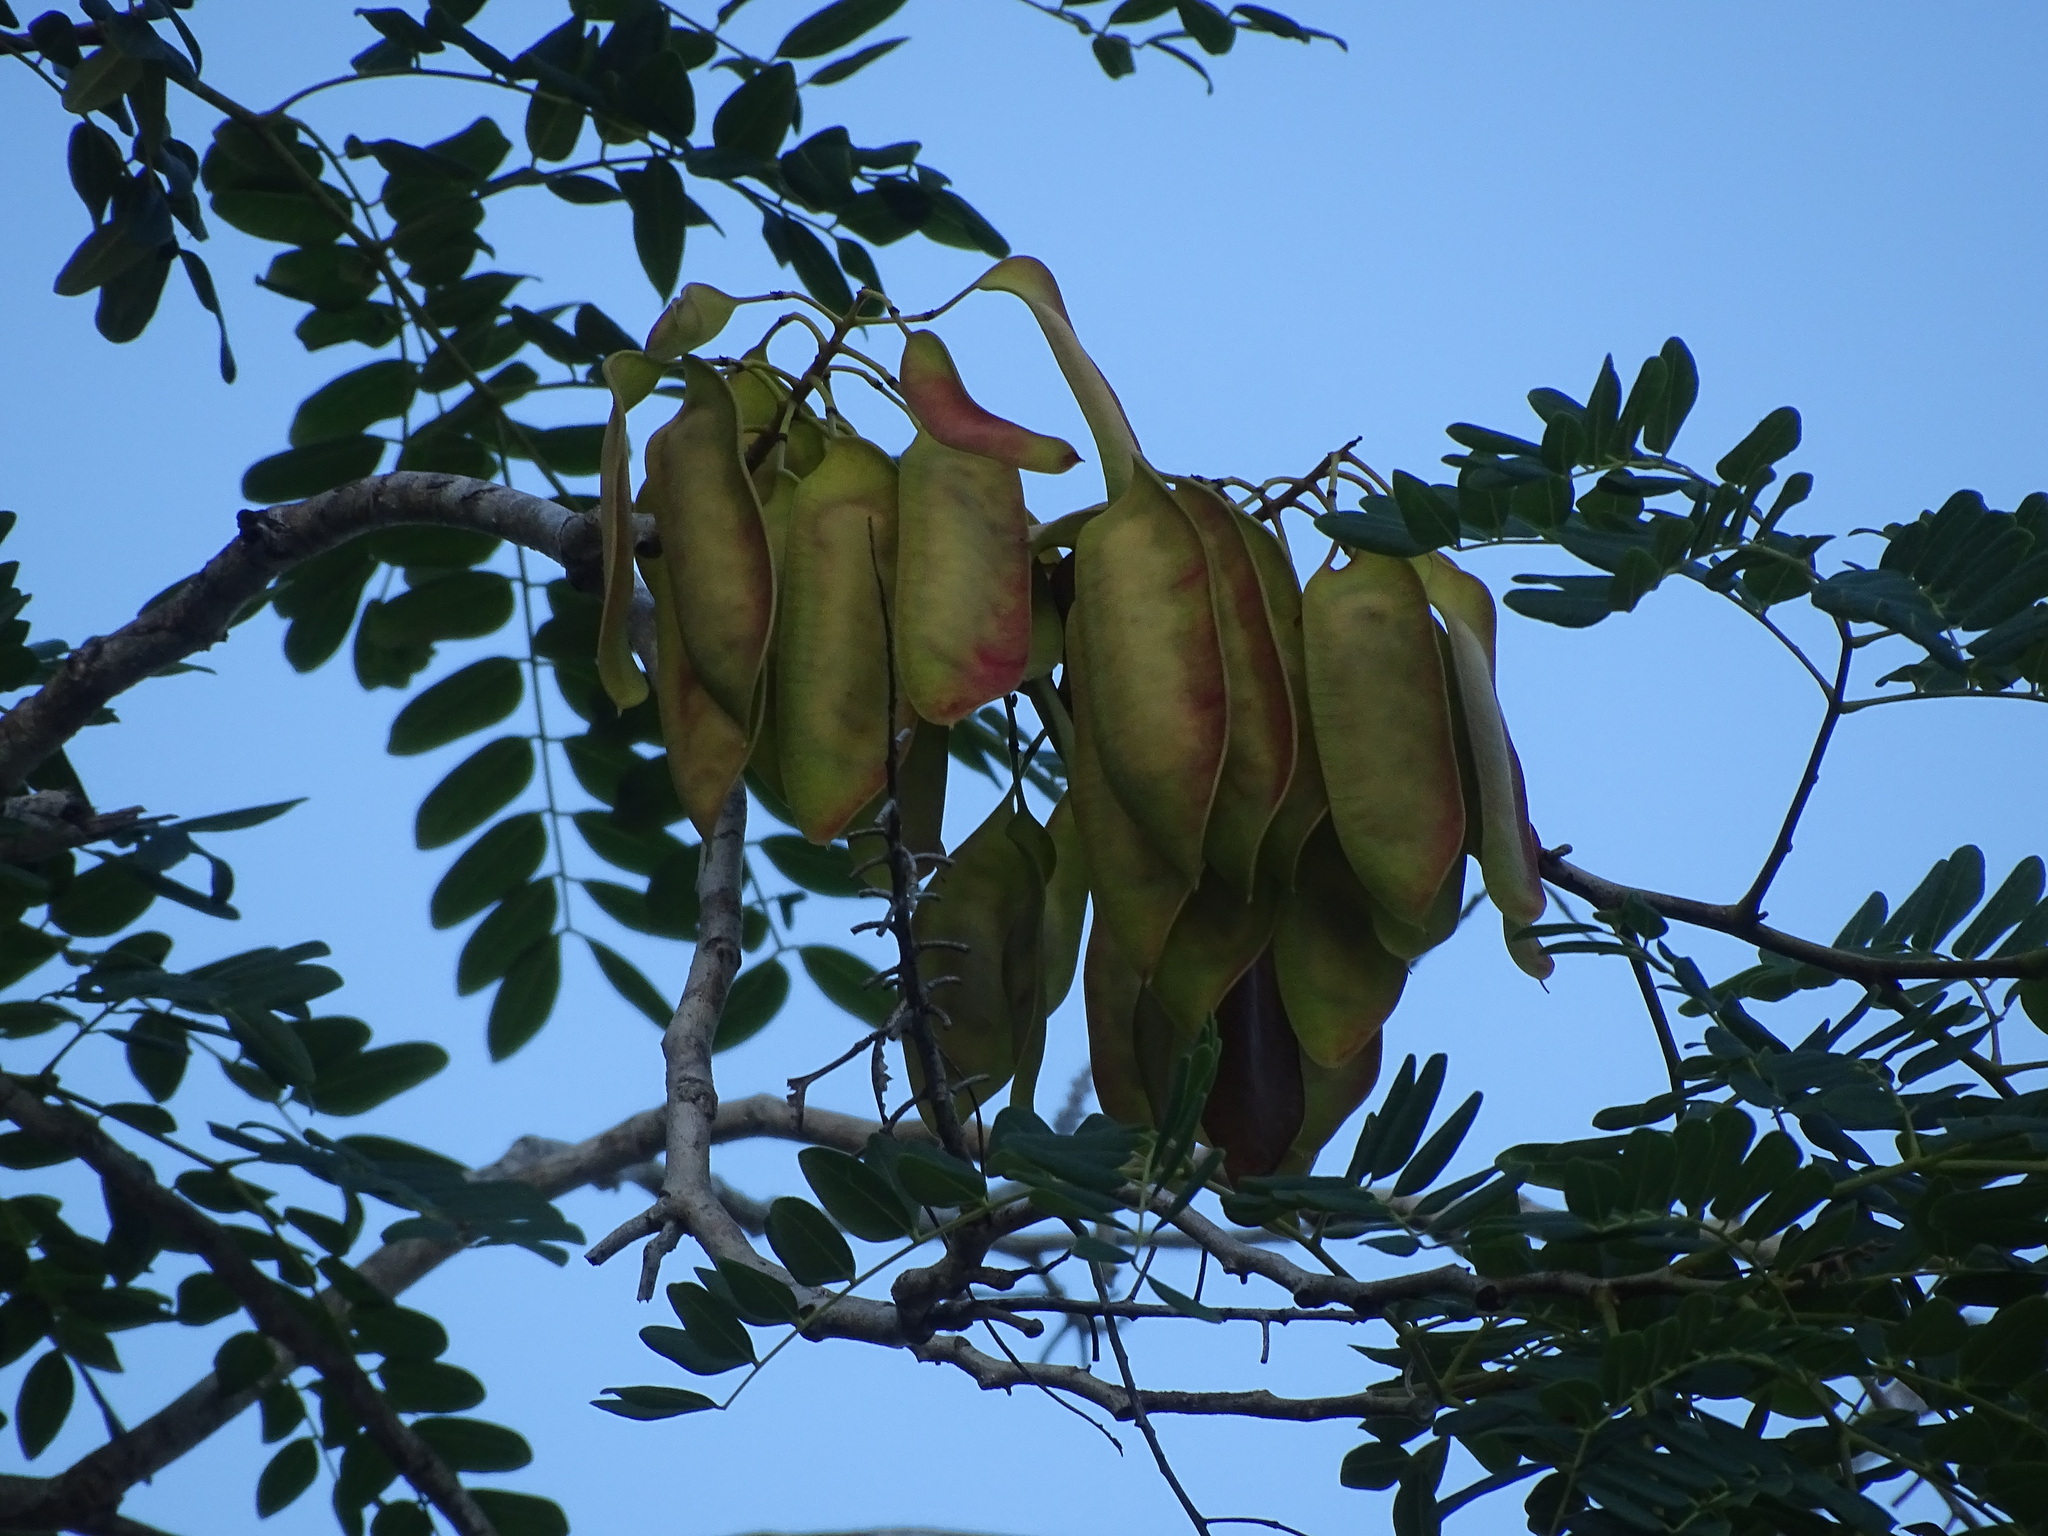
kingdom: Plantae
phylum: Tracheophyta
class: Magnoliopsida
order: Fabales
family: Fabaceae
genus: Coulteria
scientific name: Coulteria platyloba
